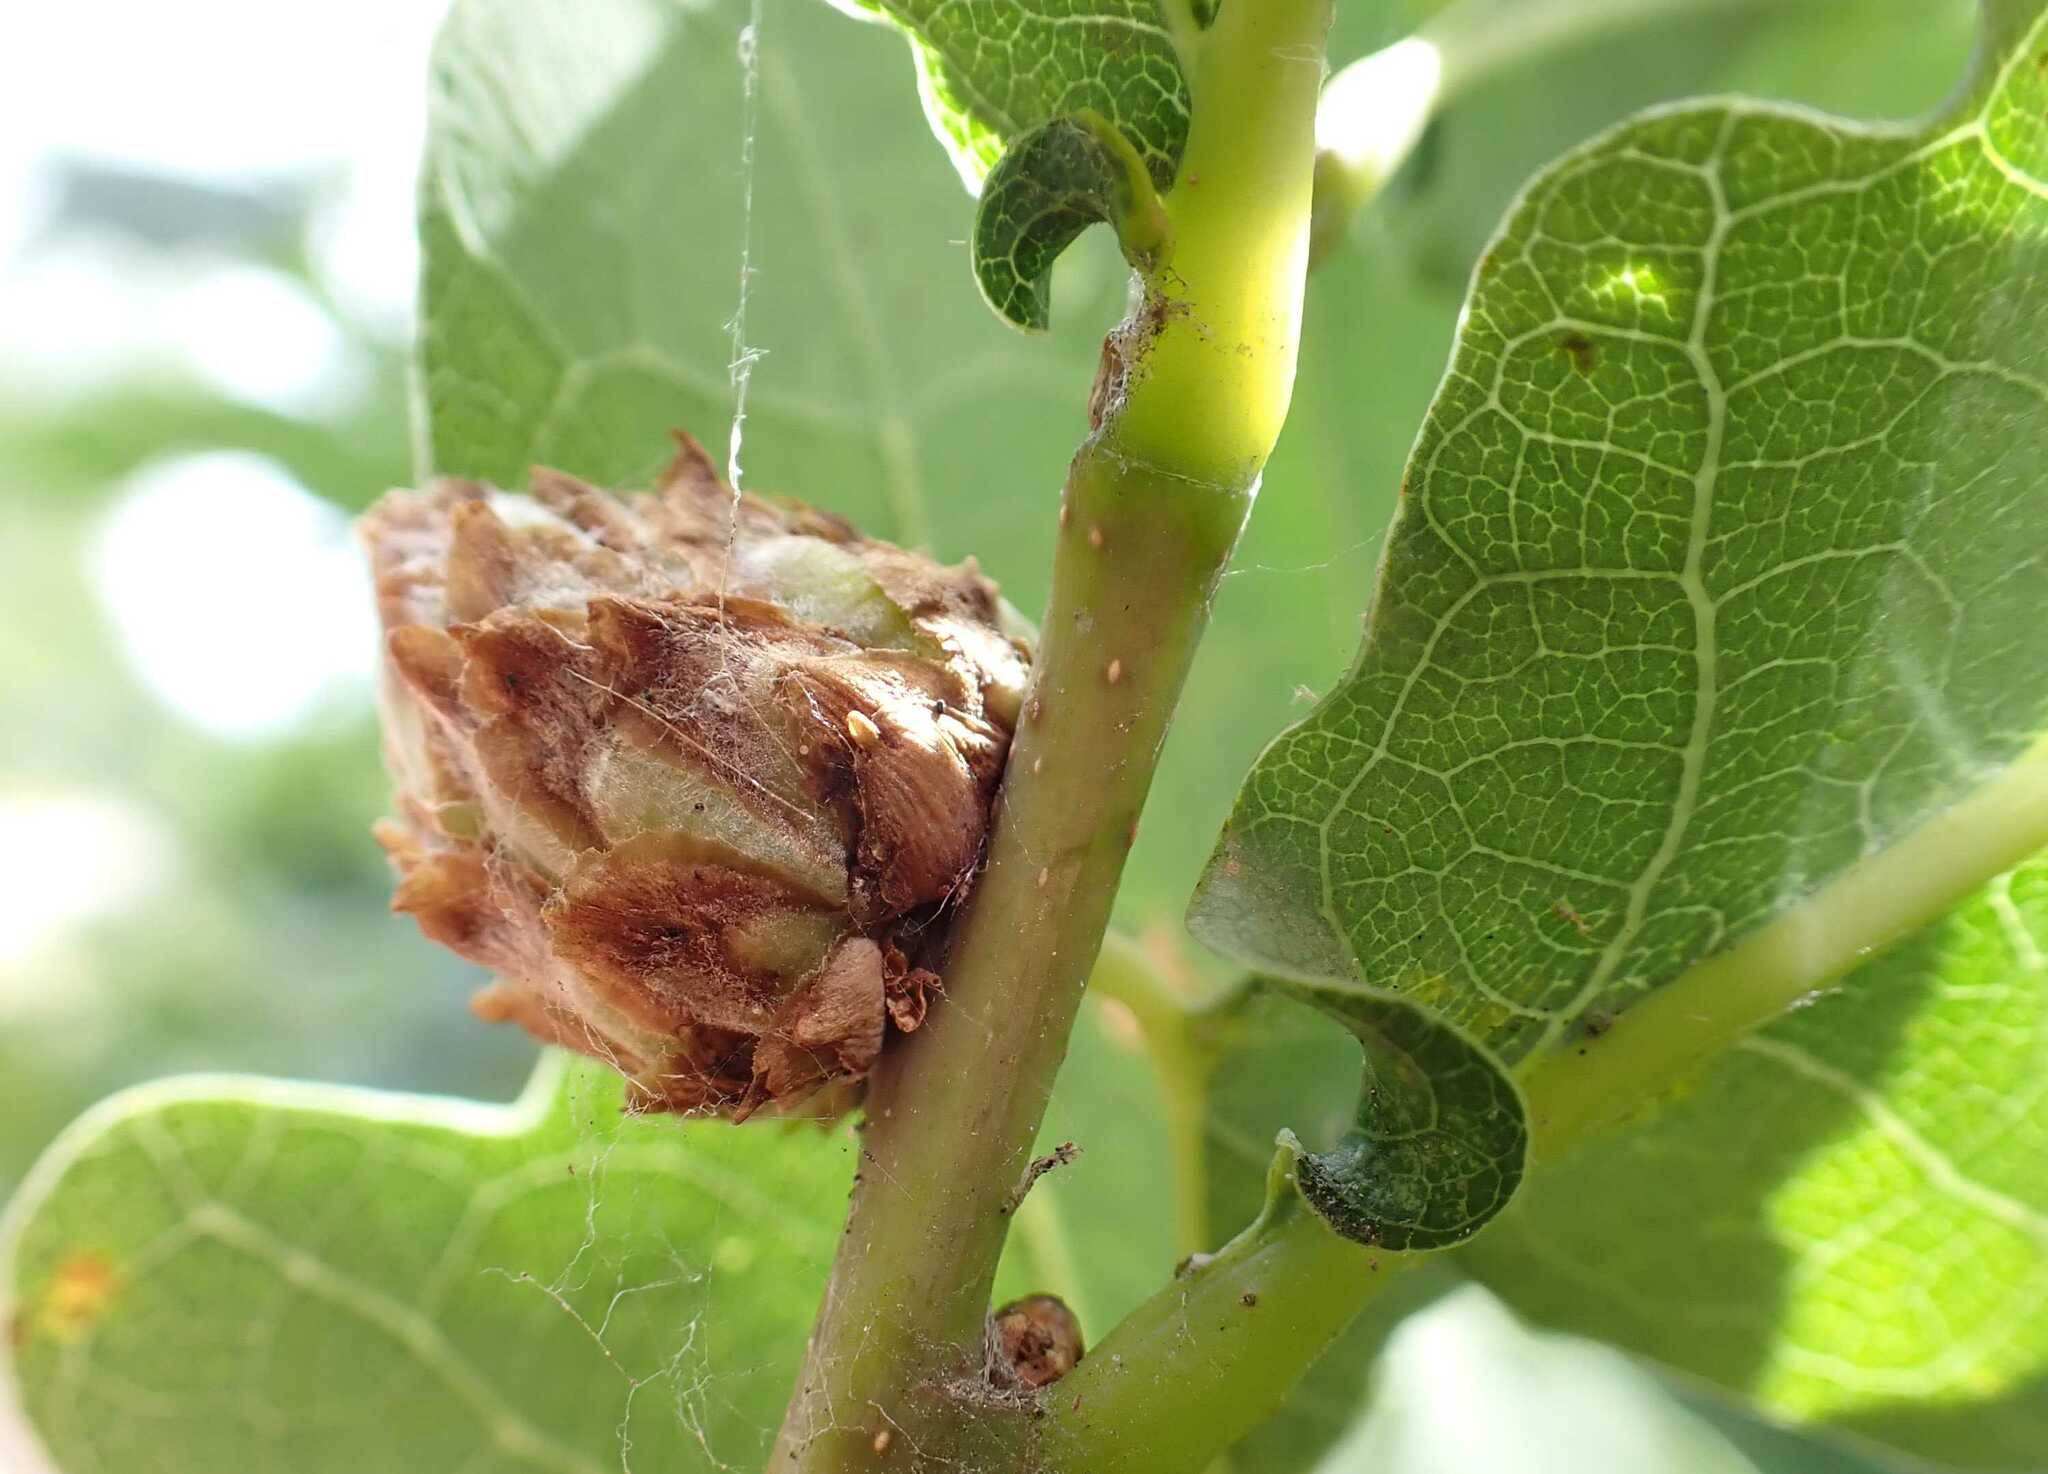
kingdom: Animalia
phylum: Arthropoda
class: Insecta
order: Hymenoptera
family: Cynipidae
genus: Andricus
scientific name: Andricus foecundatrix
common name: Artichoke gall
